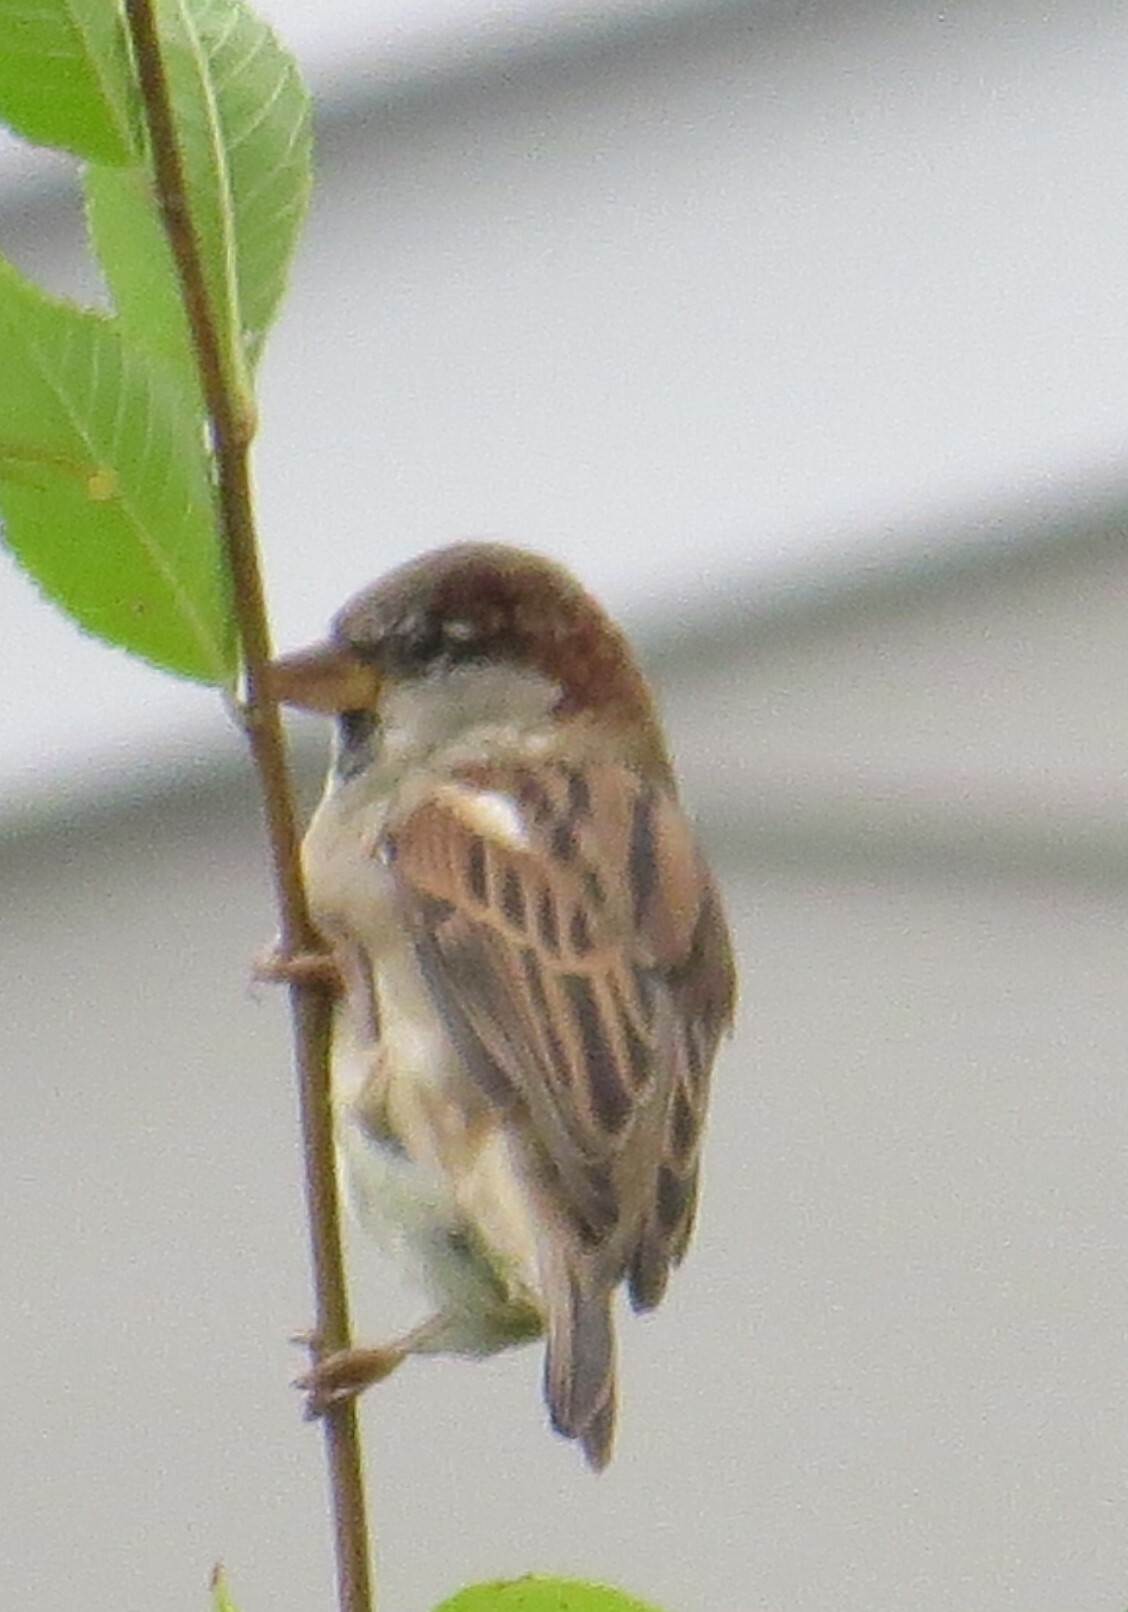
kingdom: Animalia
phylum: Chordata
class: Aves
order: Passeriformes
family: Passeridae
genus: Passer
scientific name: Passer domesticus
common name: House sparrow
